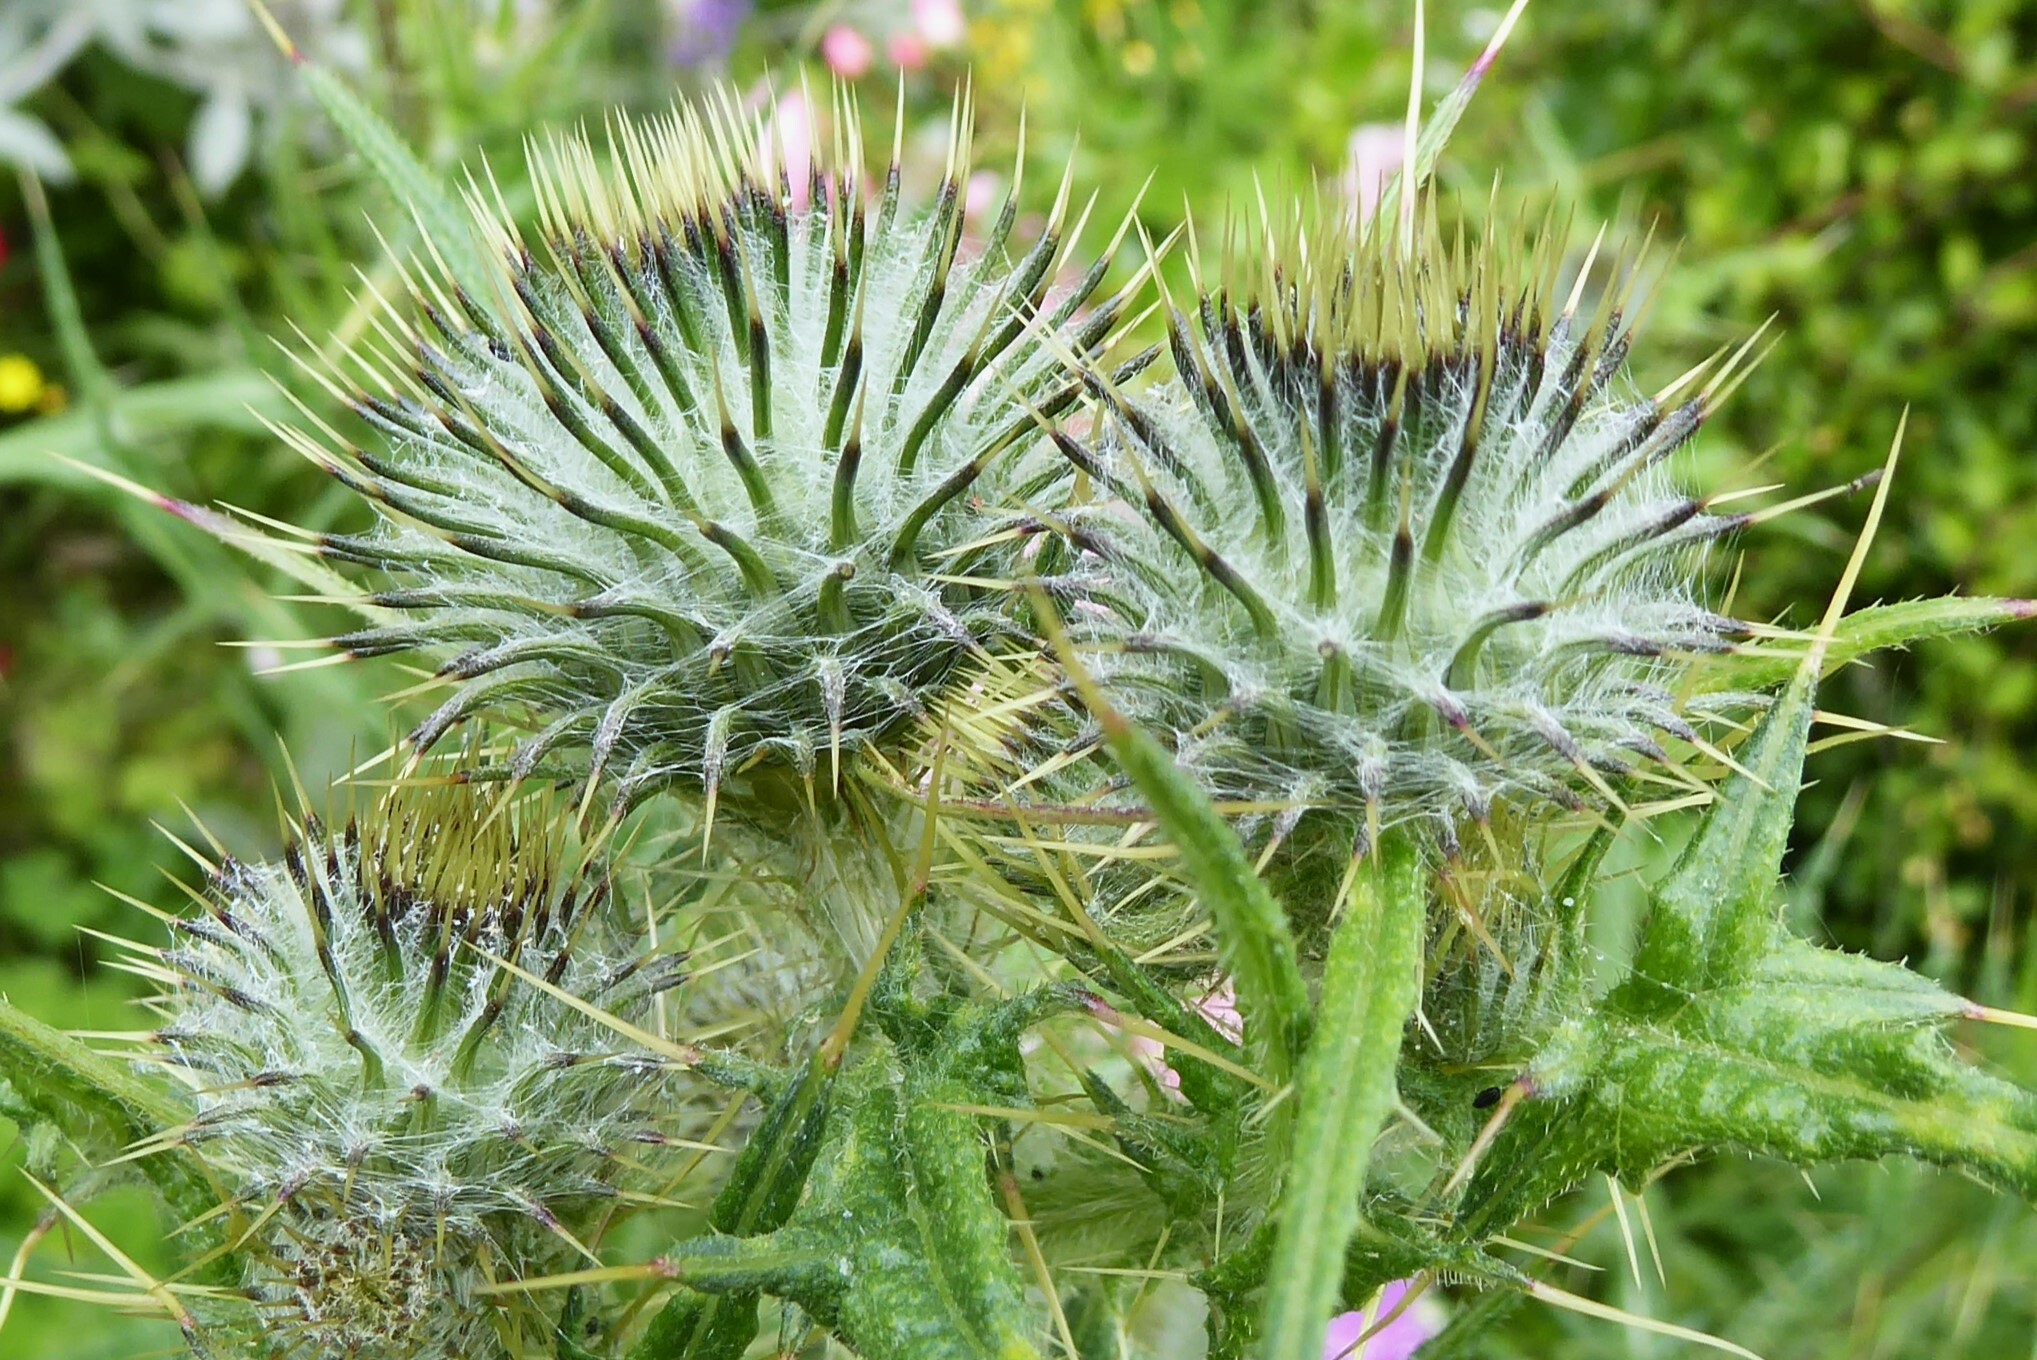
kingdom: Plantae
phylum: Tracheophyta
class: Magnoliopsida
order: Asterales
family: Asteraceae
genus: Cirsium
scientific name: Cirsium vulgare
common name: Bull thistle
